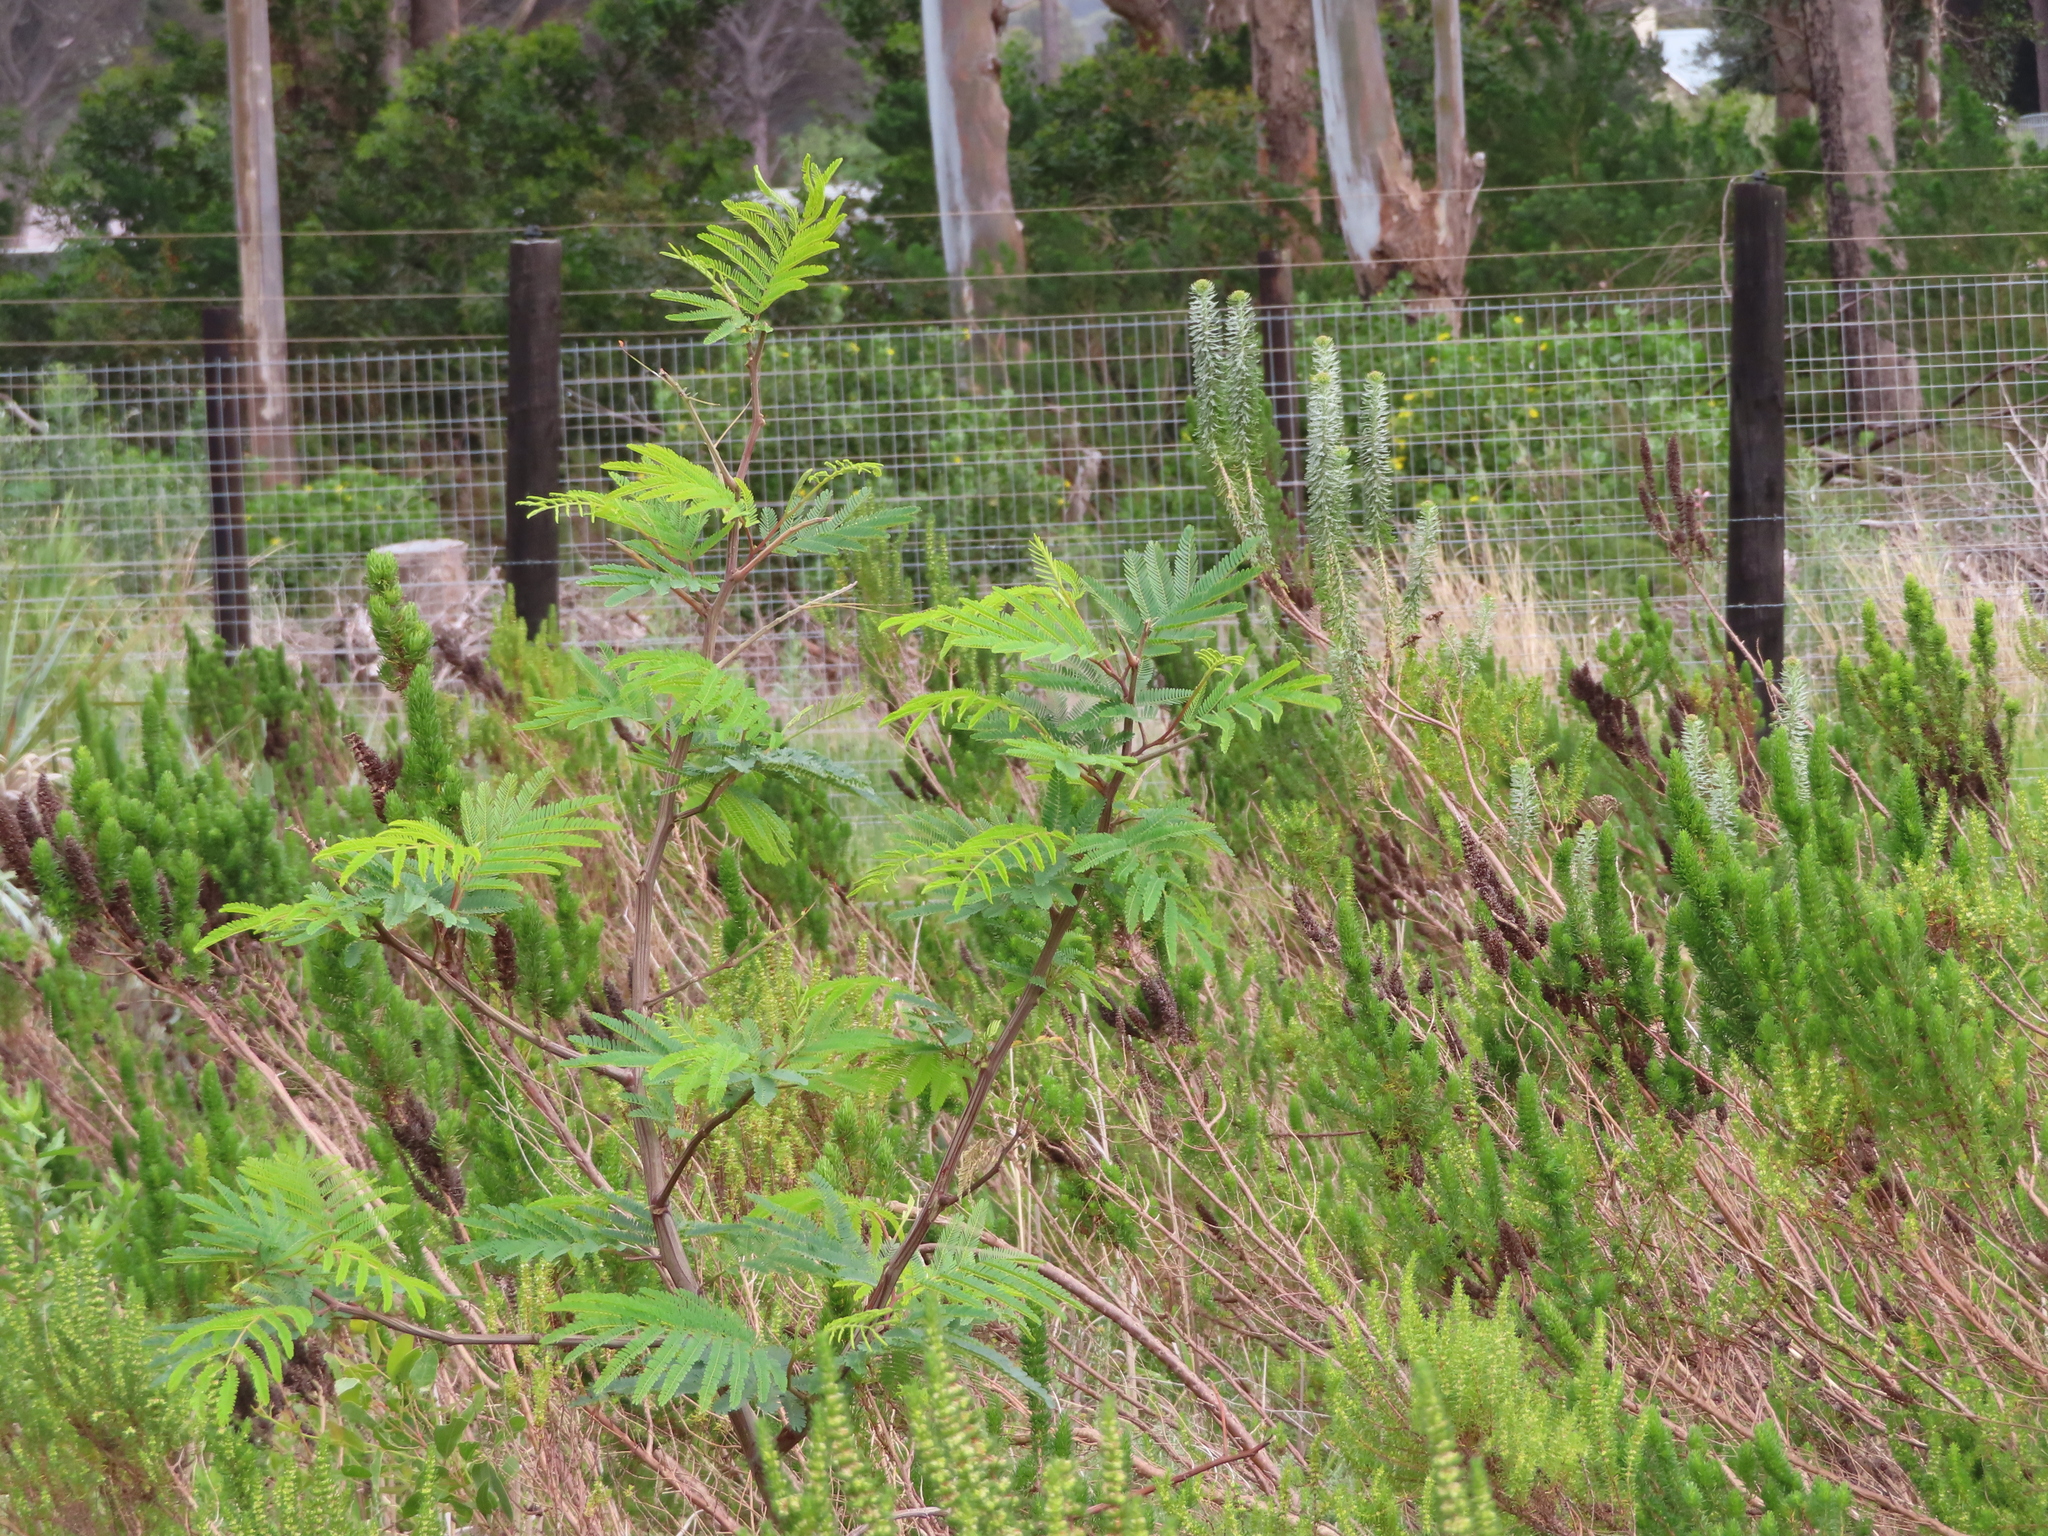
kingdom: Plantae
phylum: Tracheophyta
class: Magnoliopsida
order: Fabales
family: Fabaceae
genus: Paraserianthes
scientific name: Paraserianthes lophantha
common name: Plume albizia
